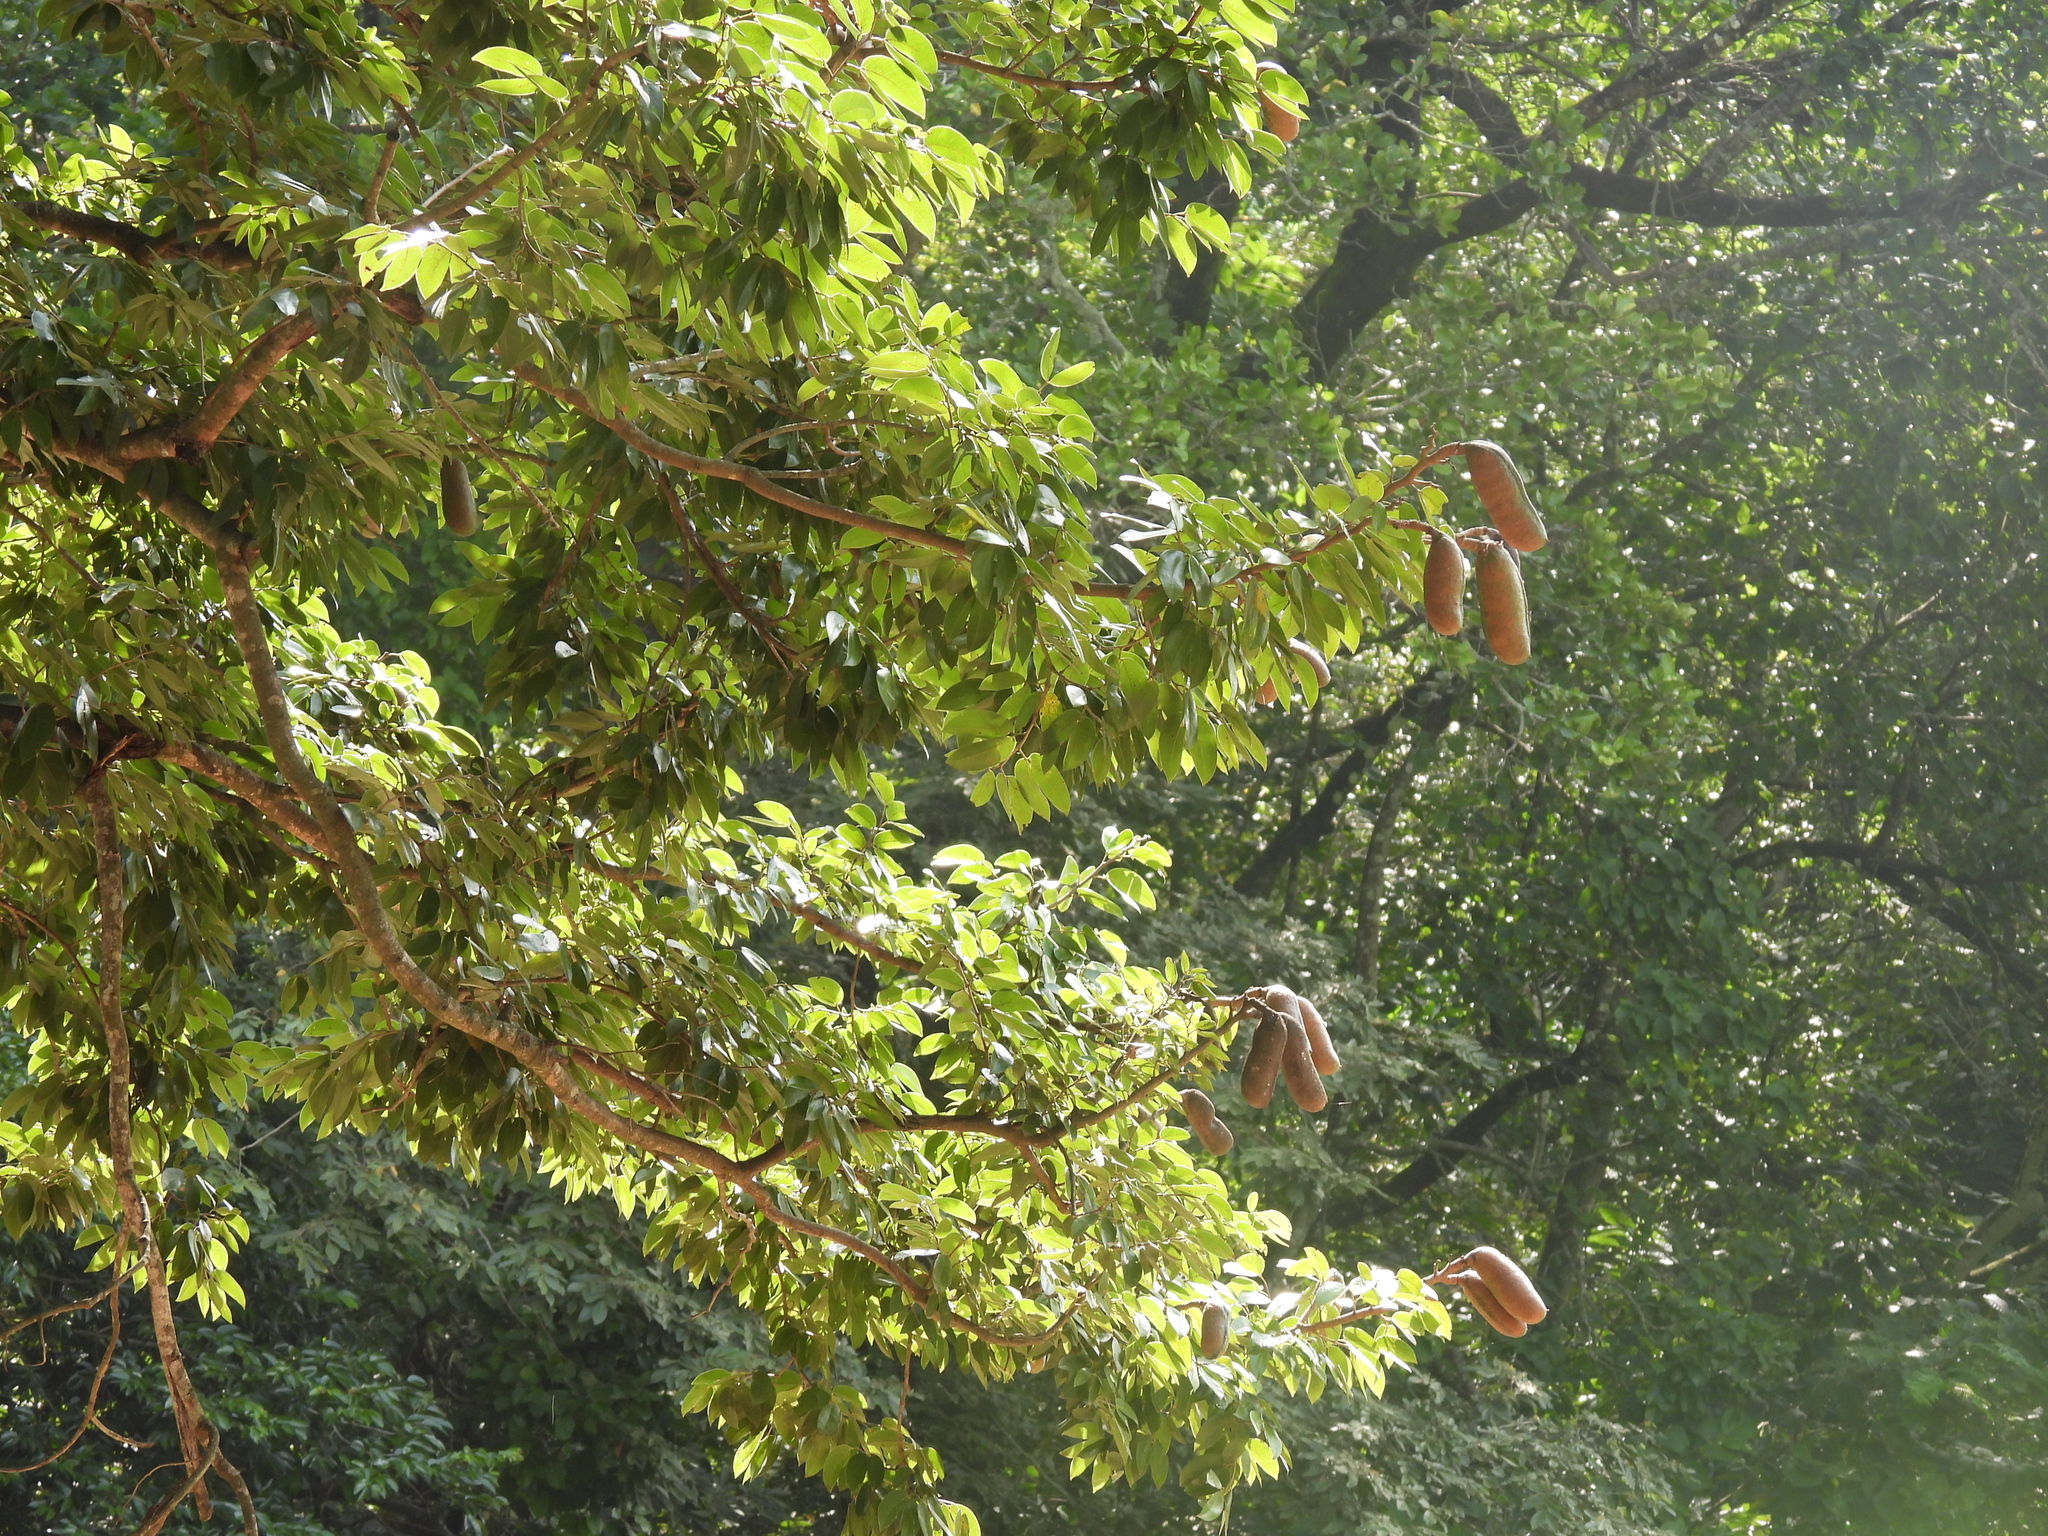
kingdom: Plantae
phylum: Tracheophyta
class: Magnoliopsida
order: Fabales
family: Fabaceae
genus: Hymenaea
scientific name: Hymenaea courbaril
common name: Brazilian copal
